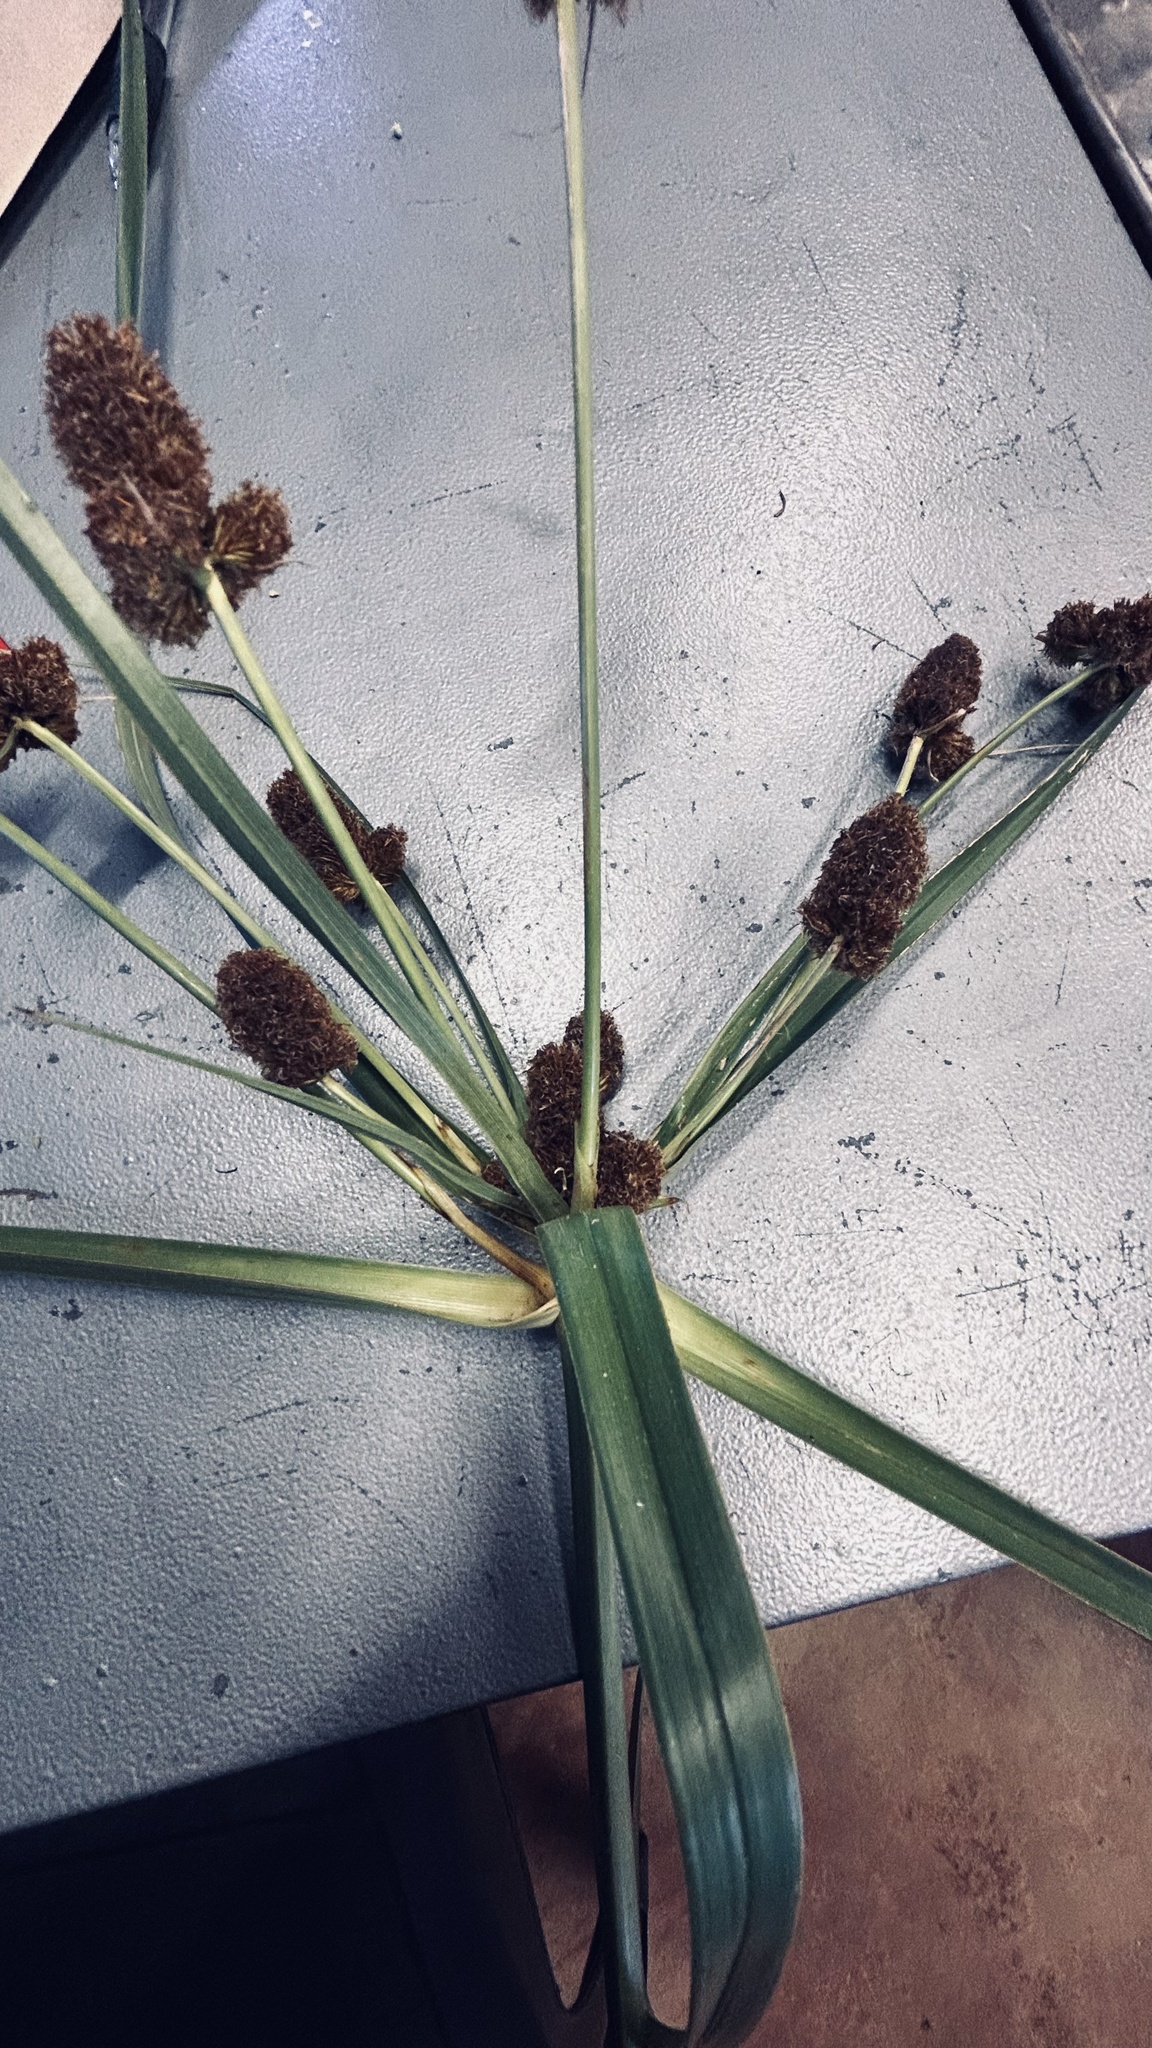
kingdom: Plantae
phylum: Tracheophyta
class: Liliopsida
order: Poales
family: Cyperaceae
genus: Cyperus
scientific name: Cyperus thunbergii
